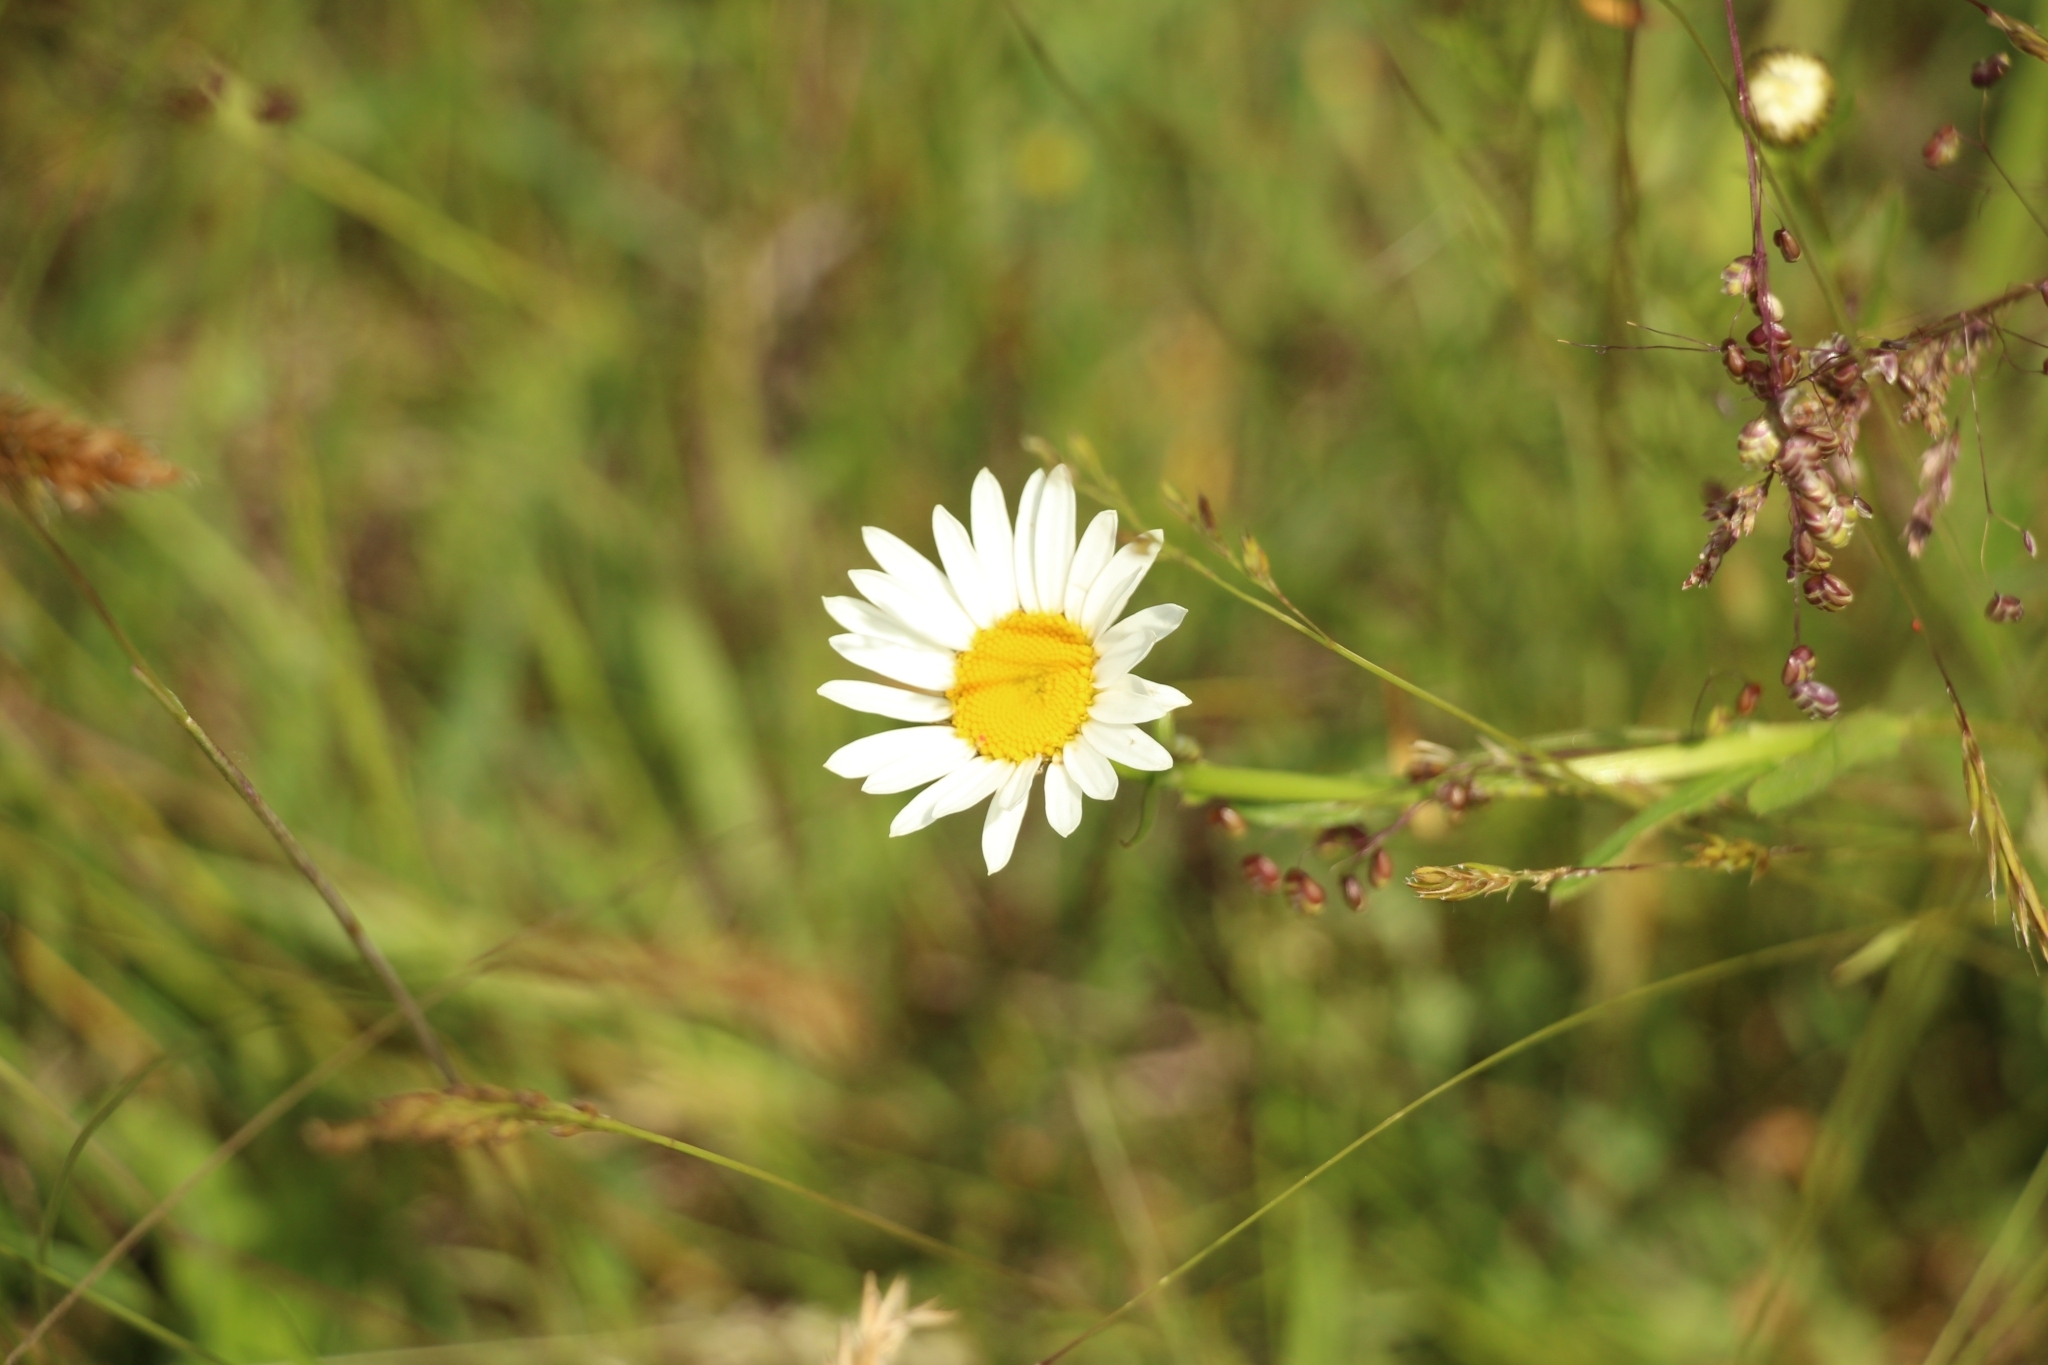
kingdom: Plantae
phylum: Tracheophyta
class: Magnoliopsida
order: Asterales
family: Asteraceae
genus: Leucanthemum
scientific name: Leucanthemum vulgare
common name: Oxeye daisy
